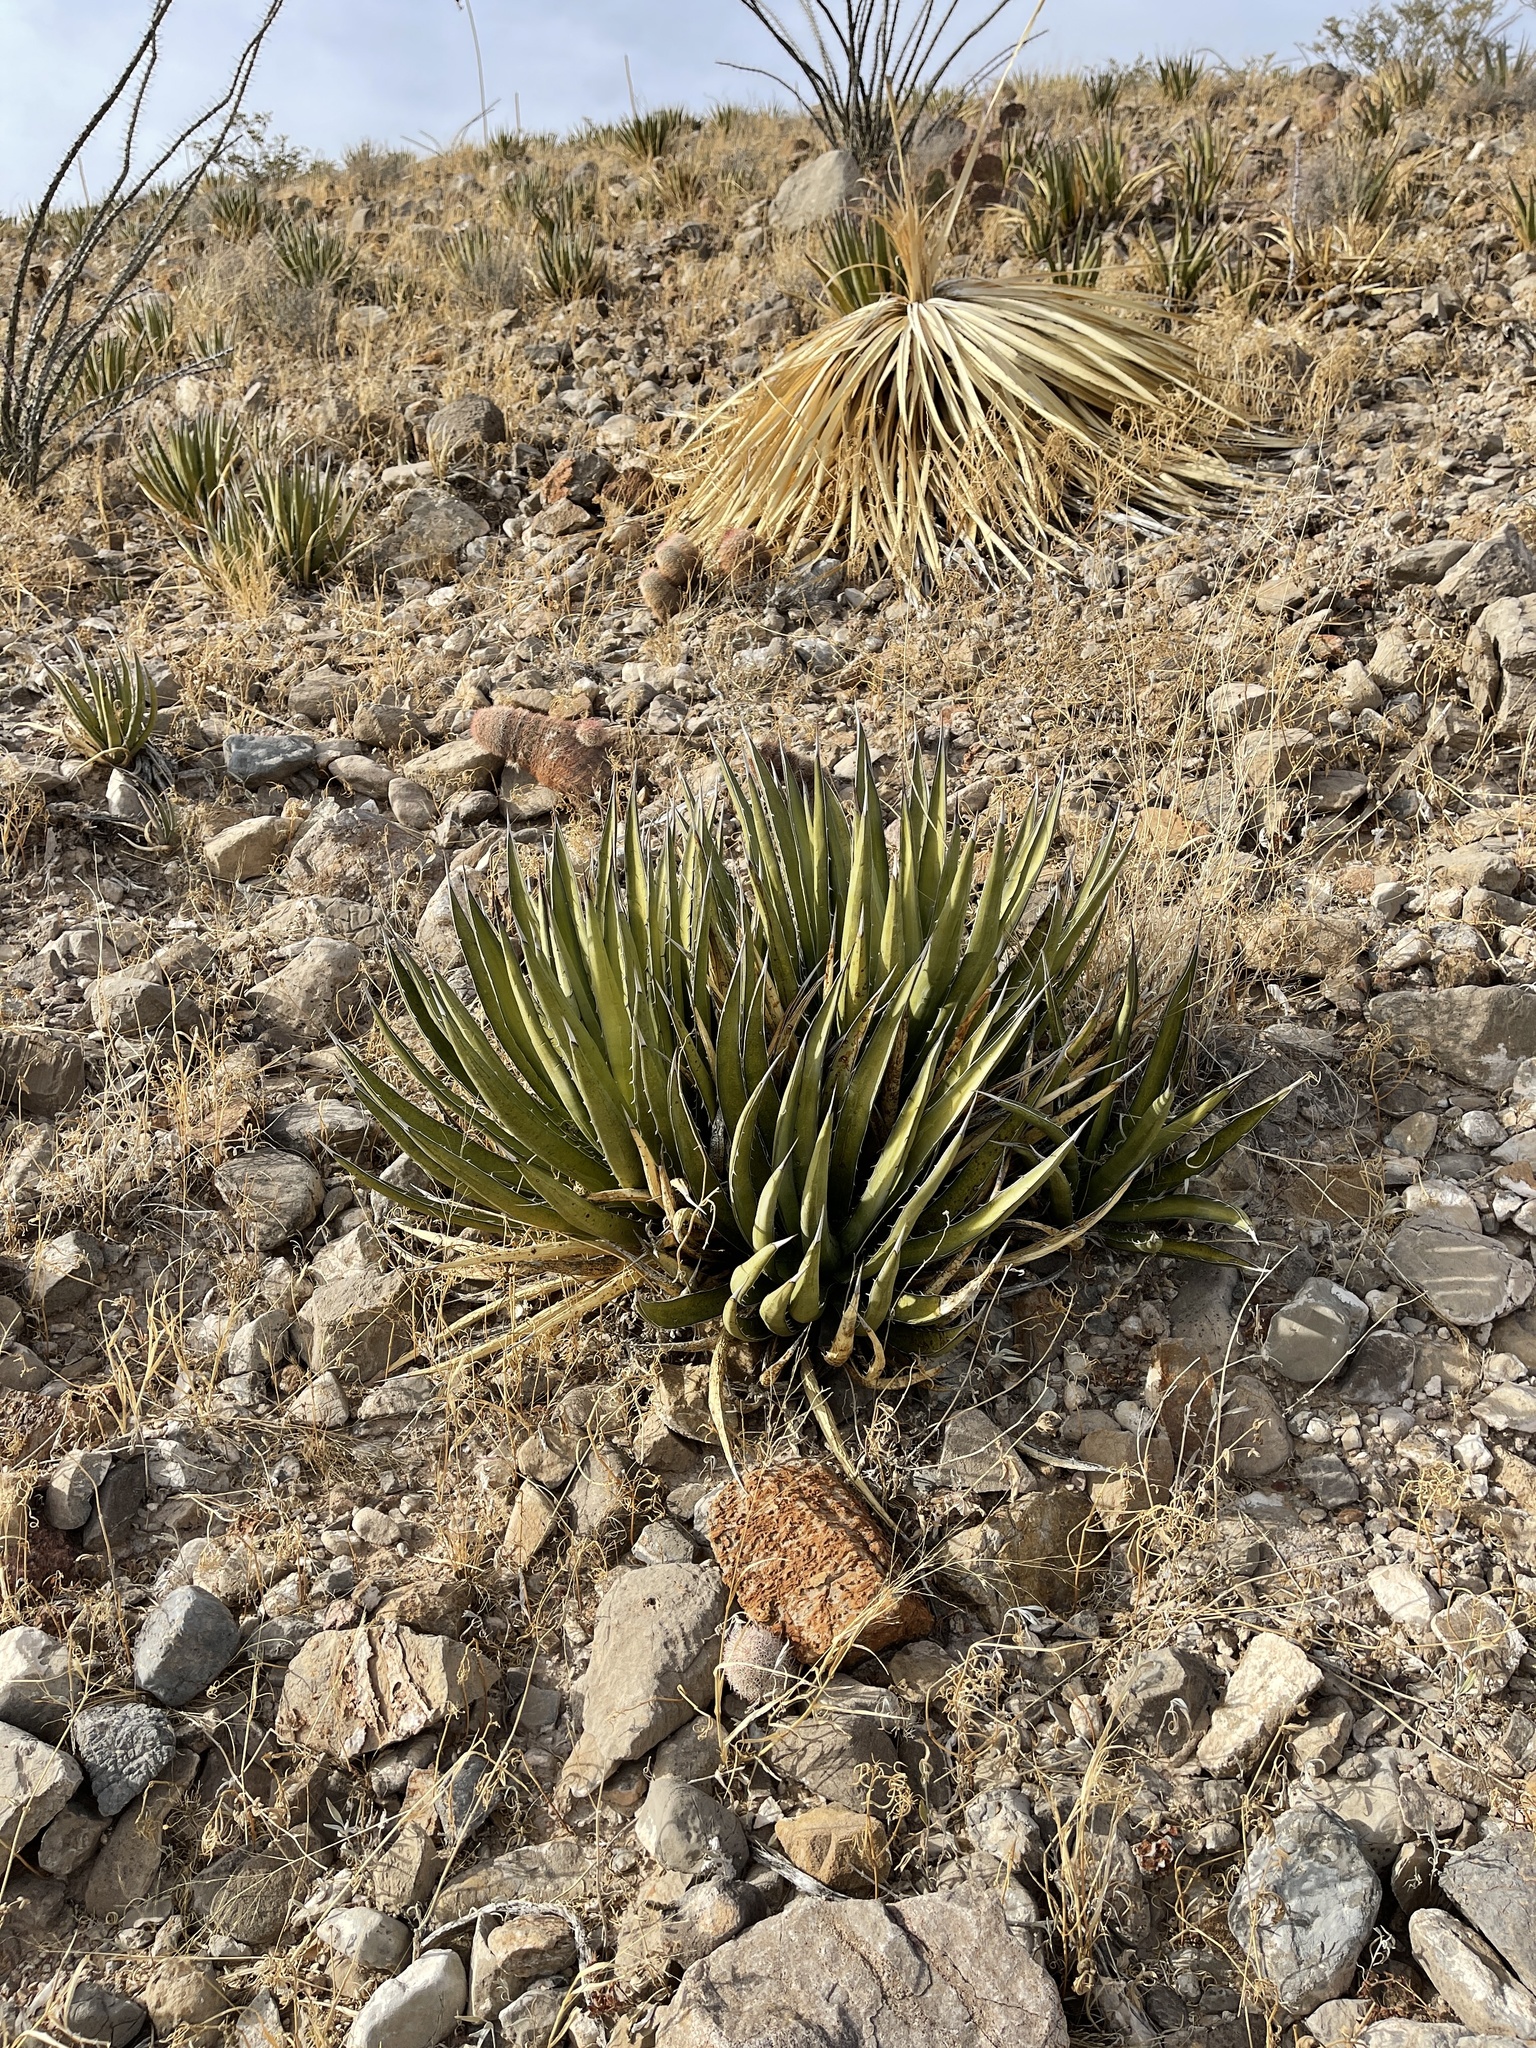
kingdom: Plantae
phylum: Tracheophyta
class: Liliopsida
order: Asparagales
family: Asparagaceae
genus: Agave
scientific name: Agave lechuguilla
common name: Lecheguilla agave
